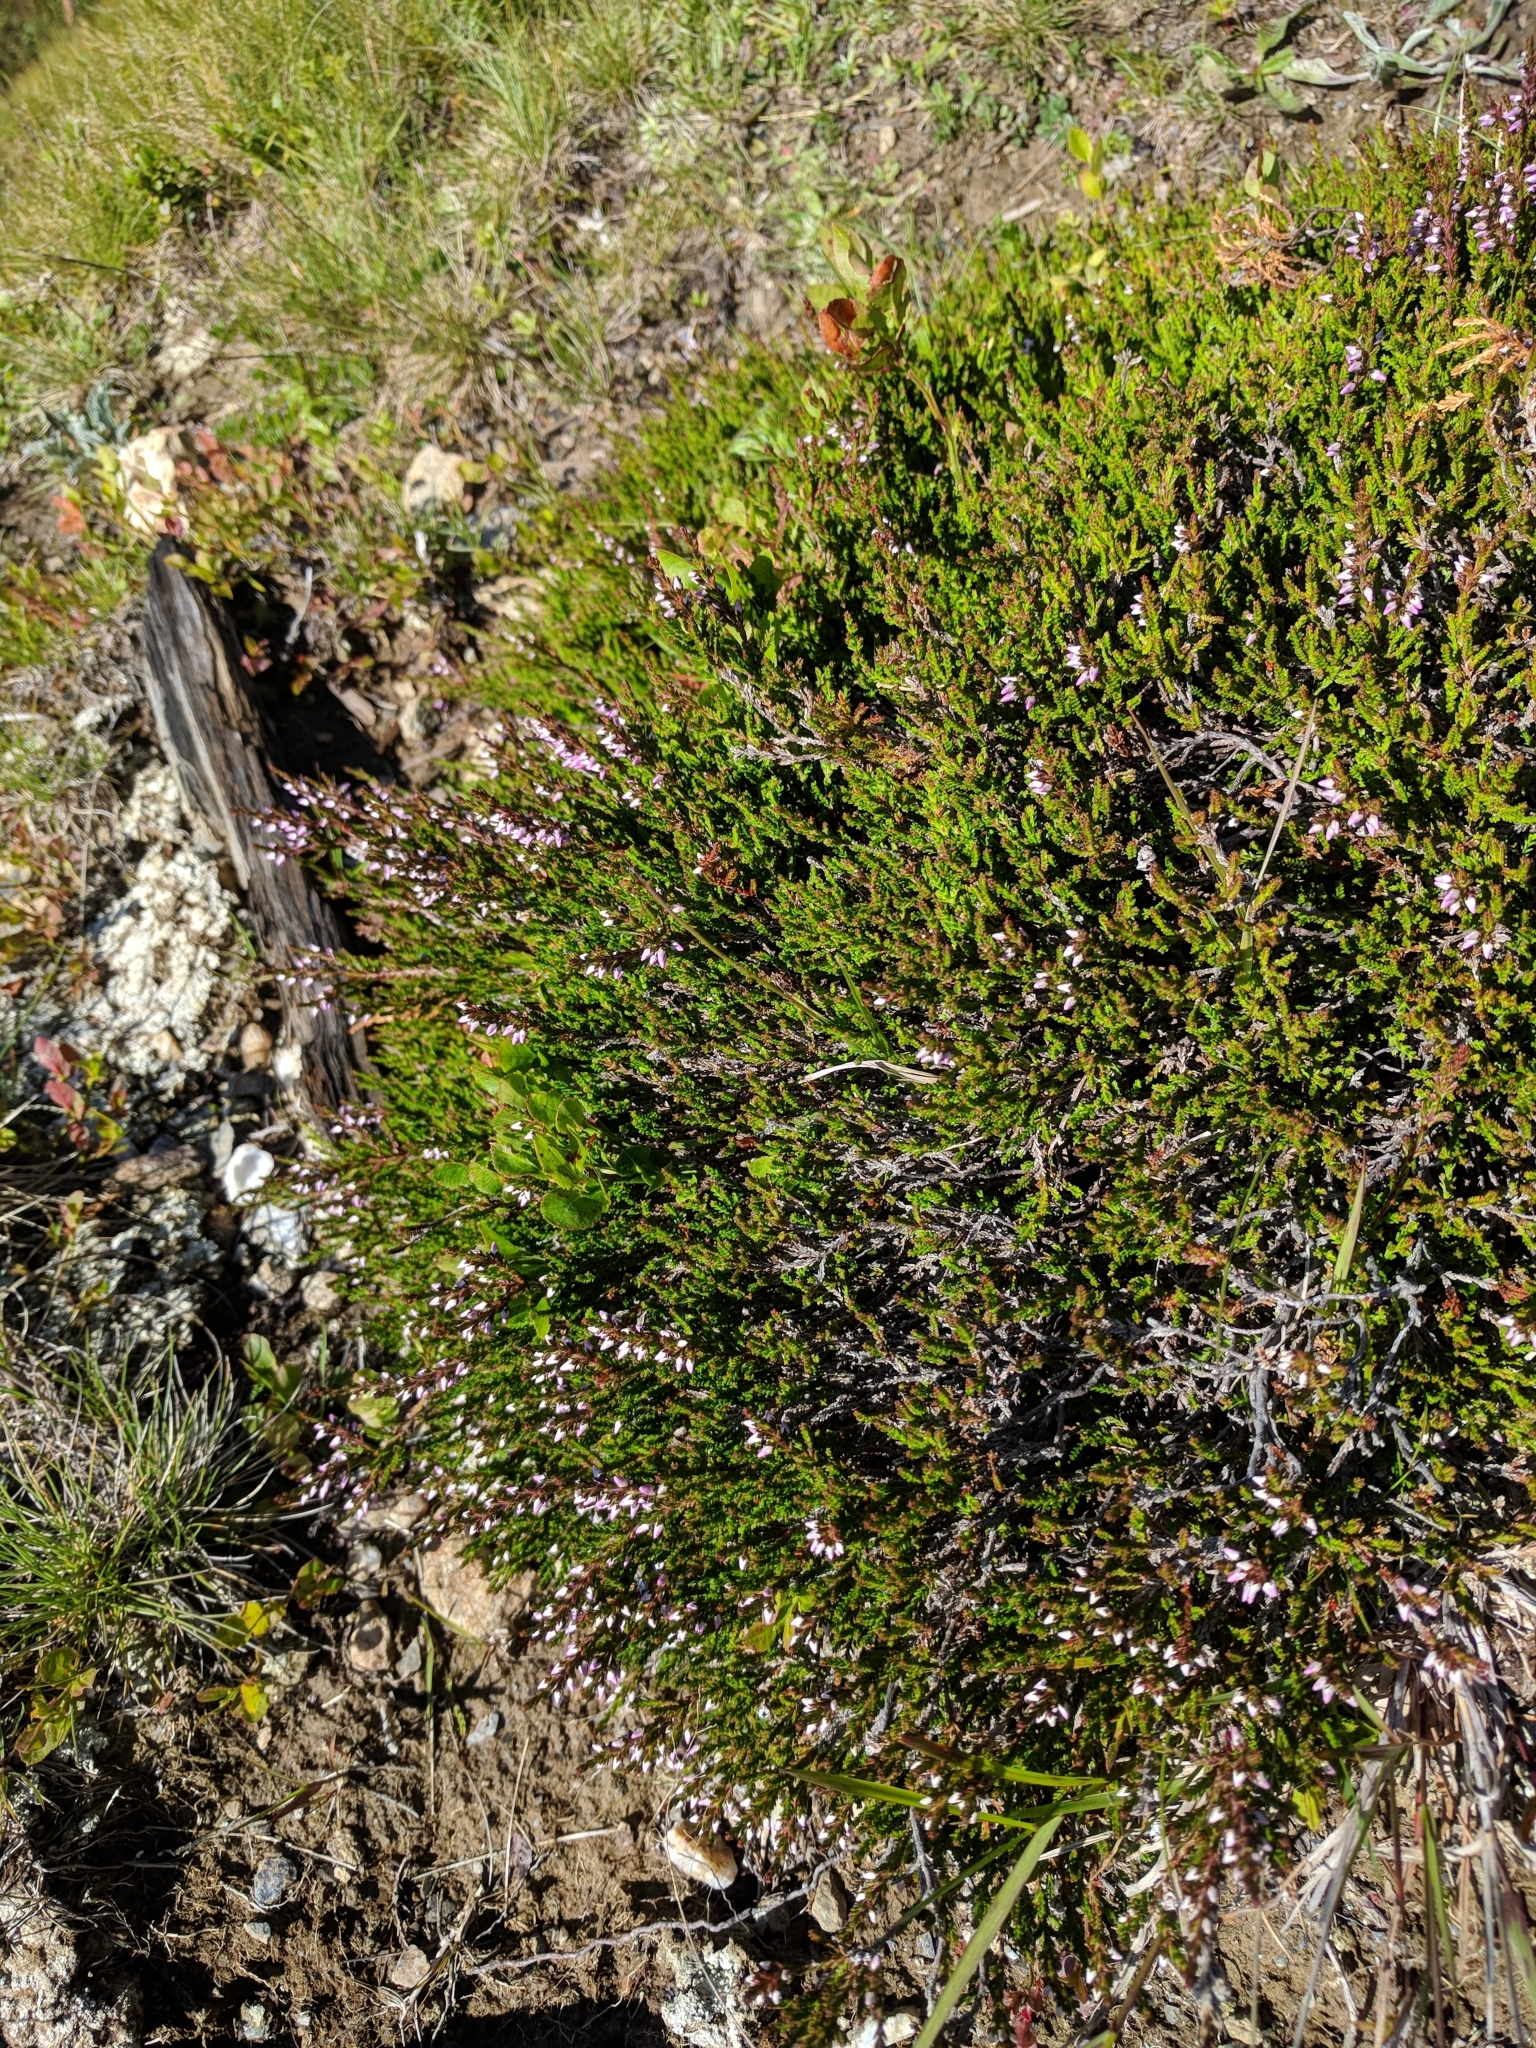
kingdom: Plantae
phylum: Tracheophyta
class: Magnoliopsida
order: Ericales
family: Ericaceae
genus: Calluna
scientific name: Calluna vulgaris
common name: Heather
